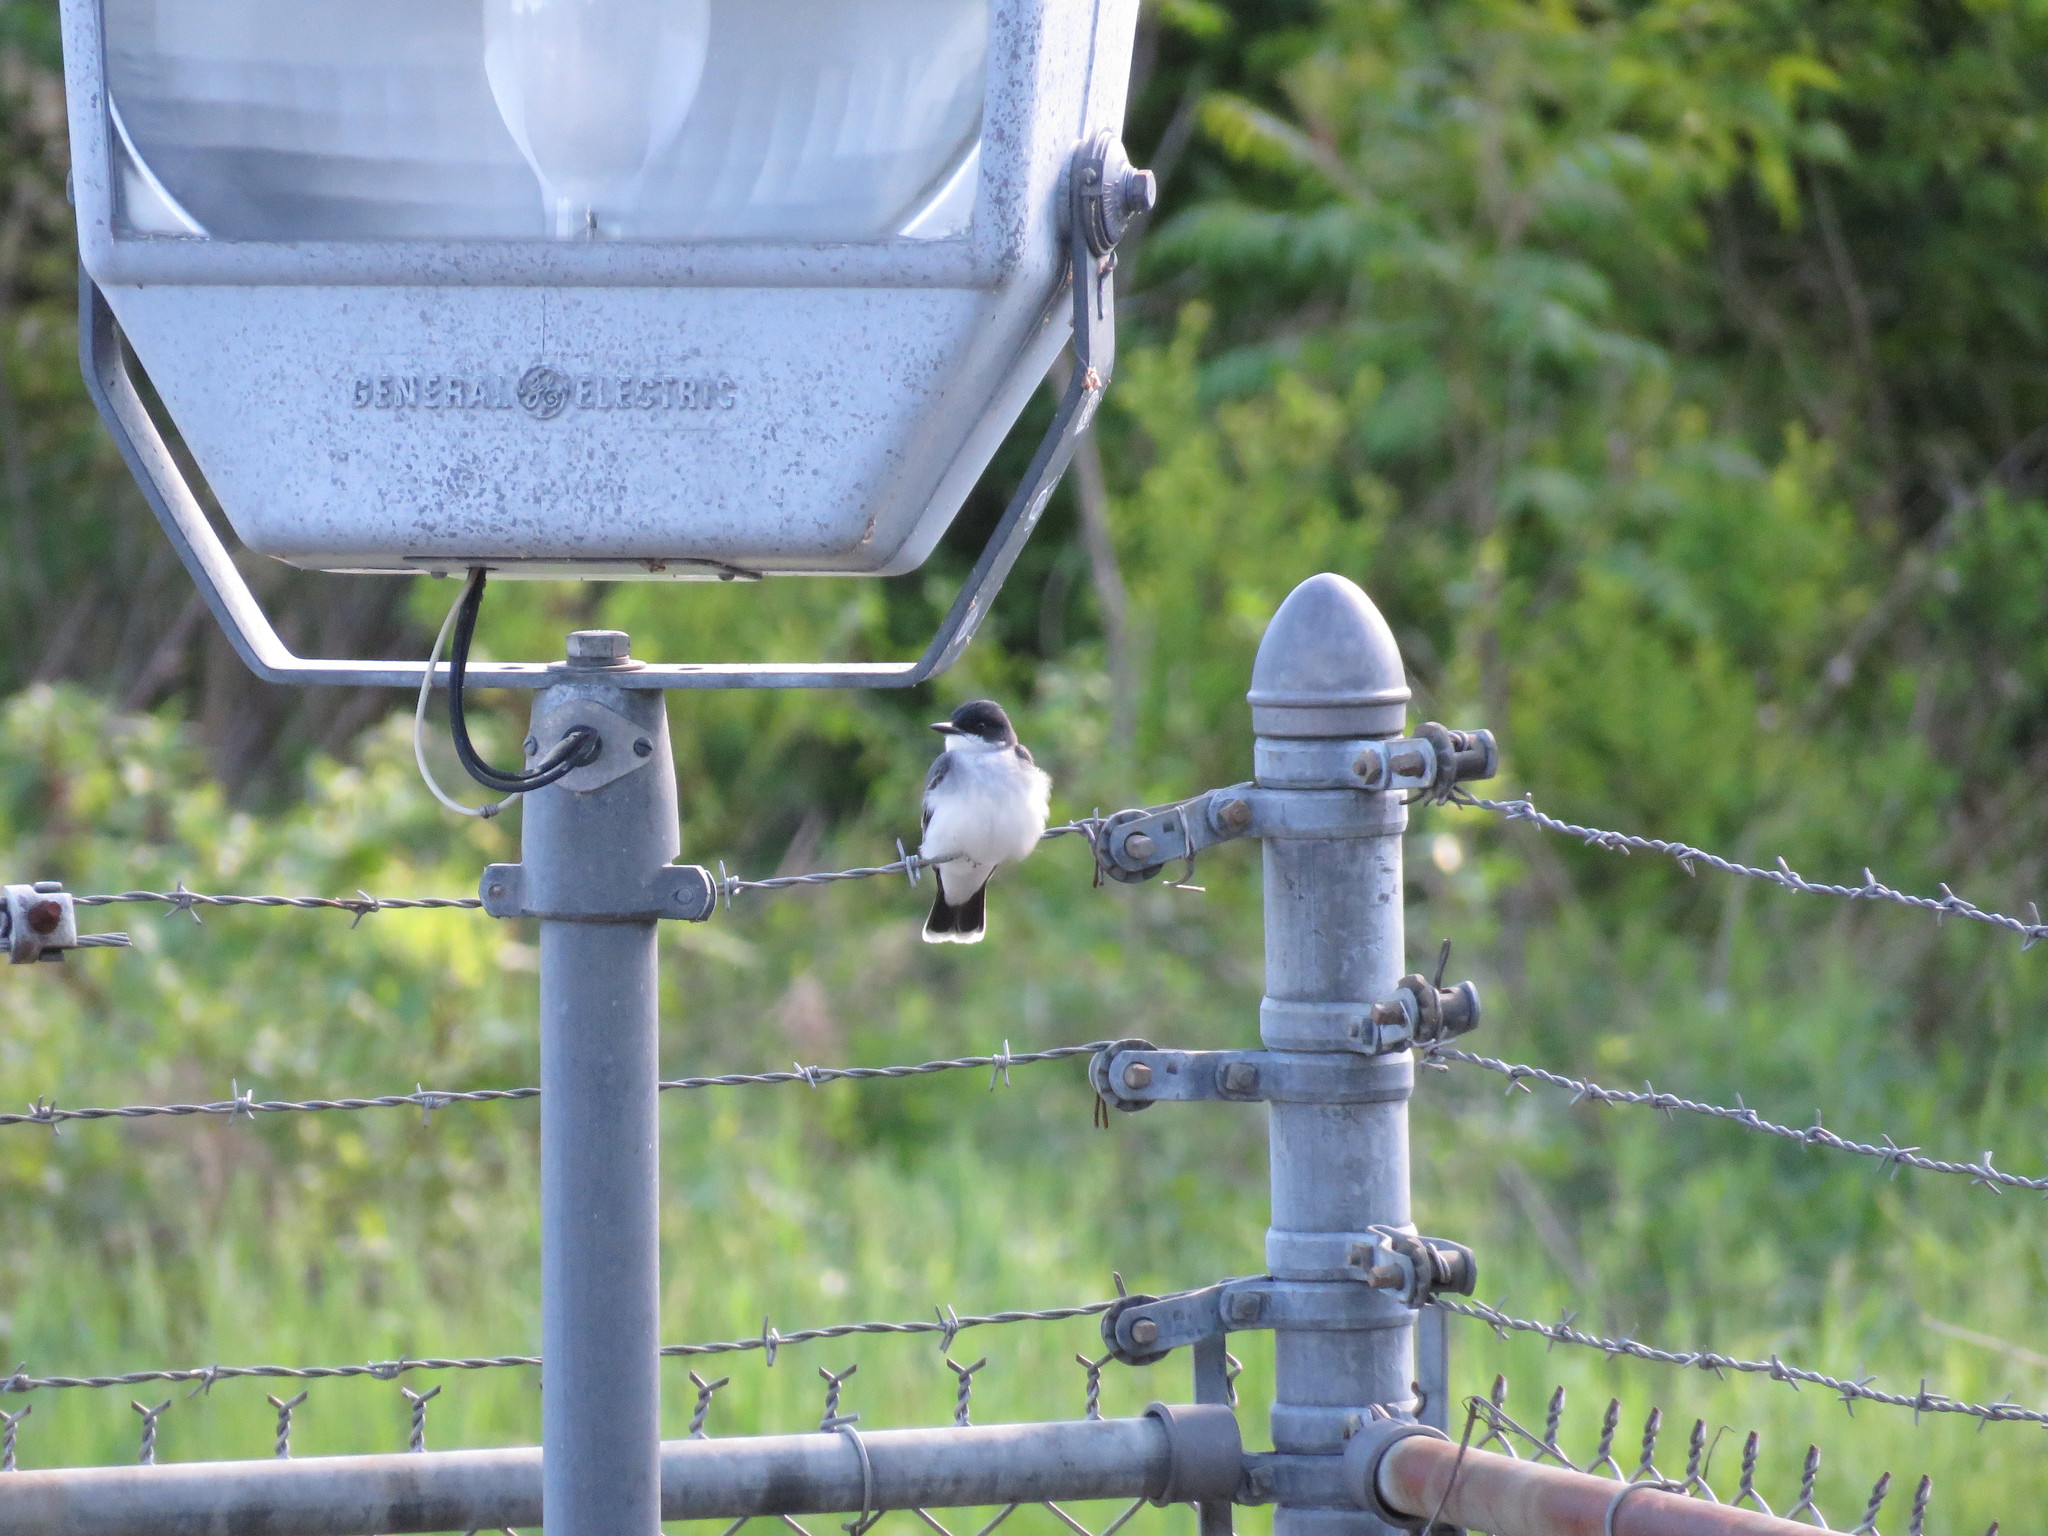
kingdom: Animalia
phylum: Chordata
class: Aves
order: Passeriformes
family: Tyrannidae
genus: Tyrannus
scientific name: Tyrannus tyrannus
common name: Eastern kingbird
